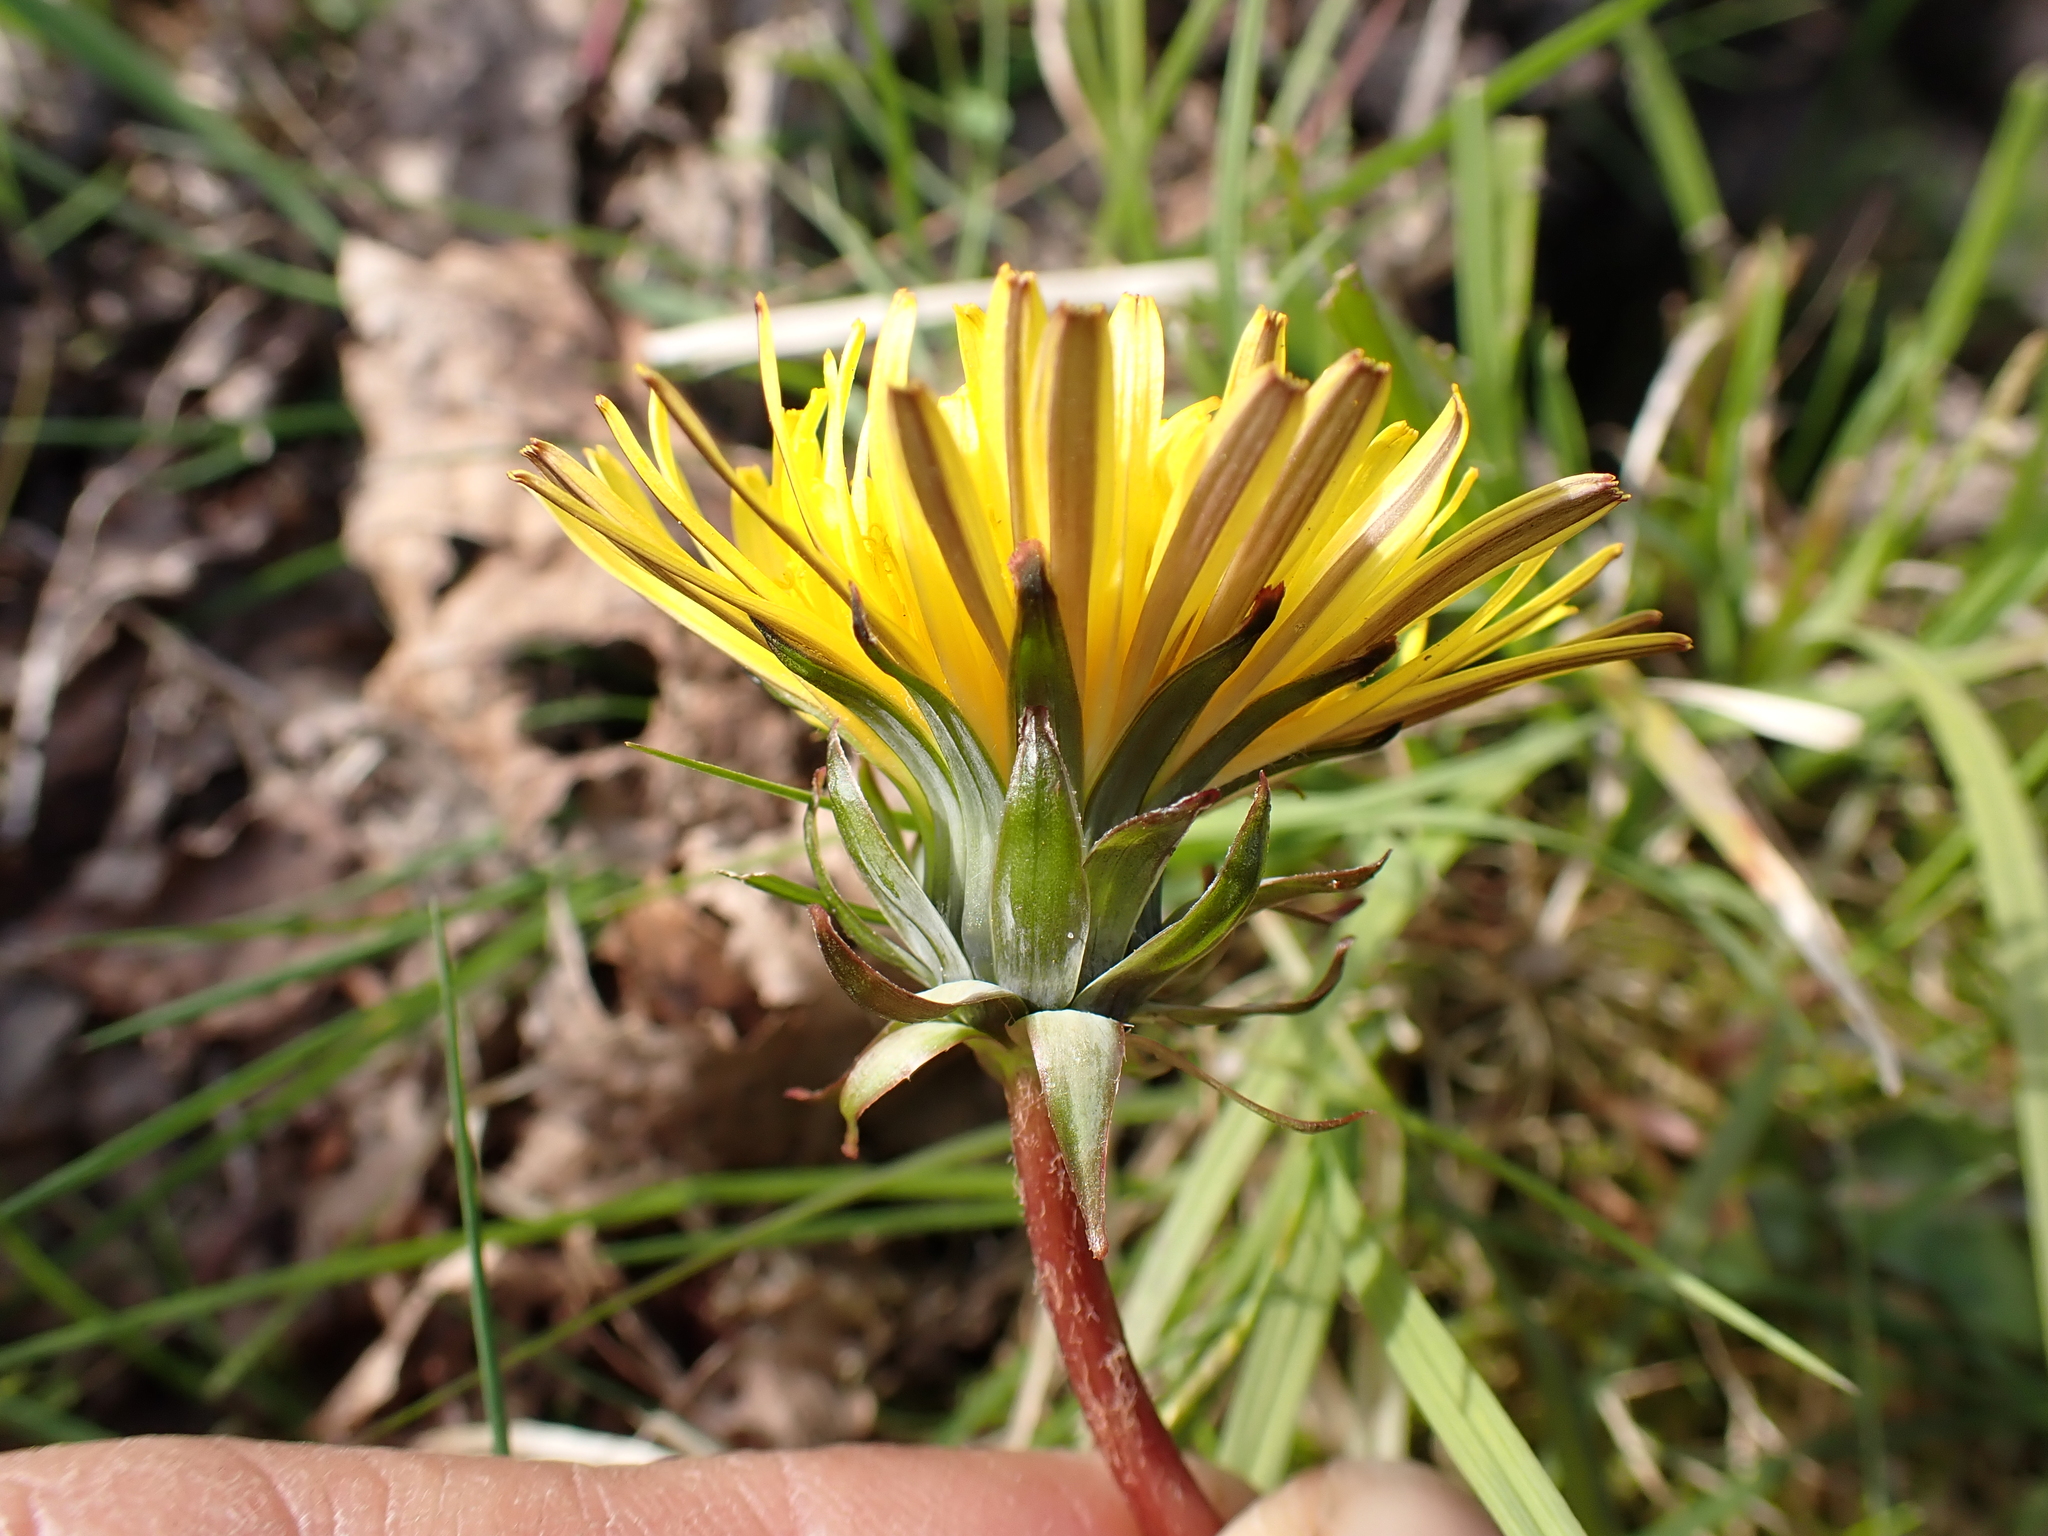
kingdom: Plantae
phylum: Tracheophyta
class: Magnoliopsida
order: Asterales
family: Asteraceae
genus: Taraxacum
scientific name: Taraxacum bracteatum
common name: Dark-green dandelion
